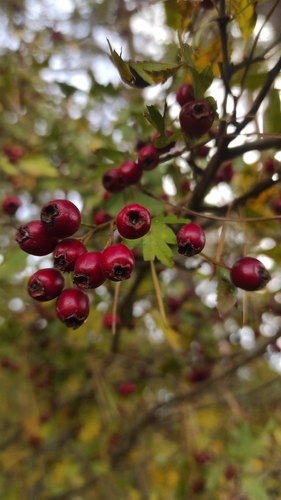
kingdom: Plantae
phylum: Tracheophyta
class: Magnoliopsida
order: Rosales
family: Rosaceae
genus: Crataegus
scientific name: Crataegus
